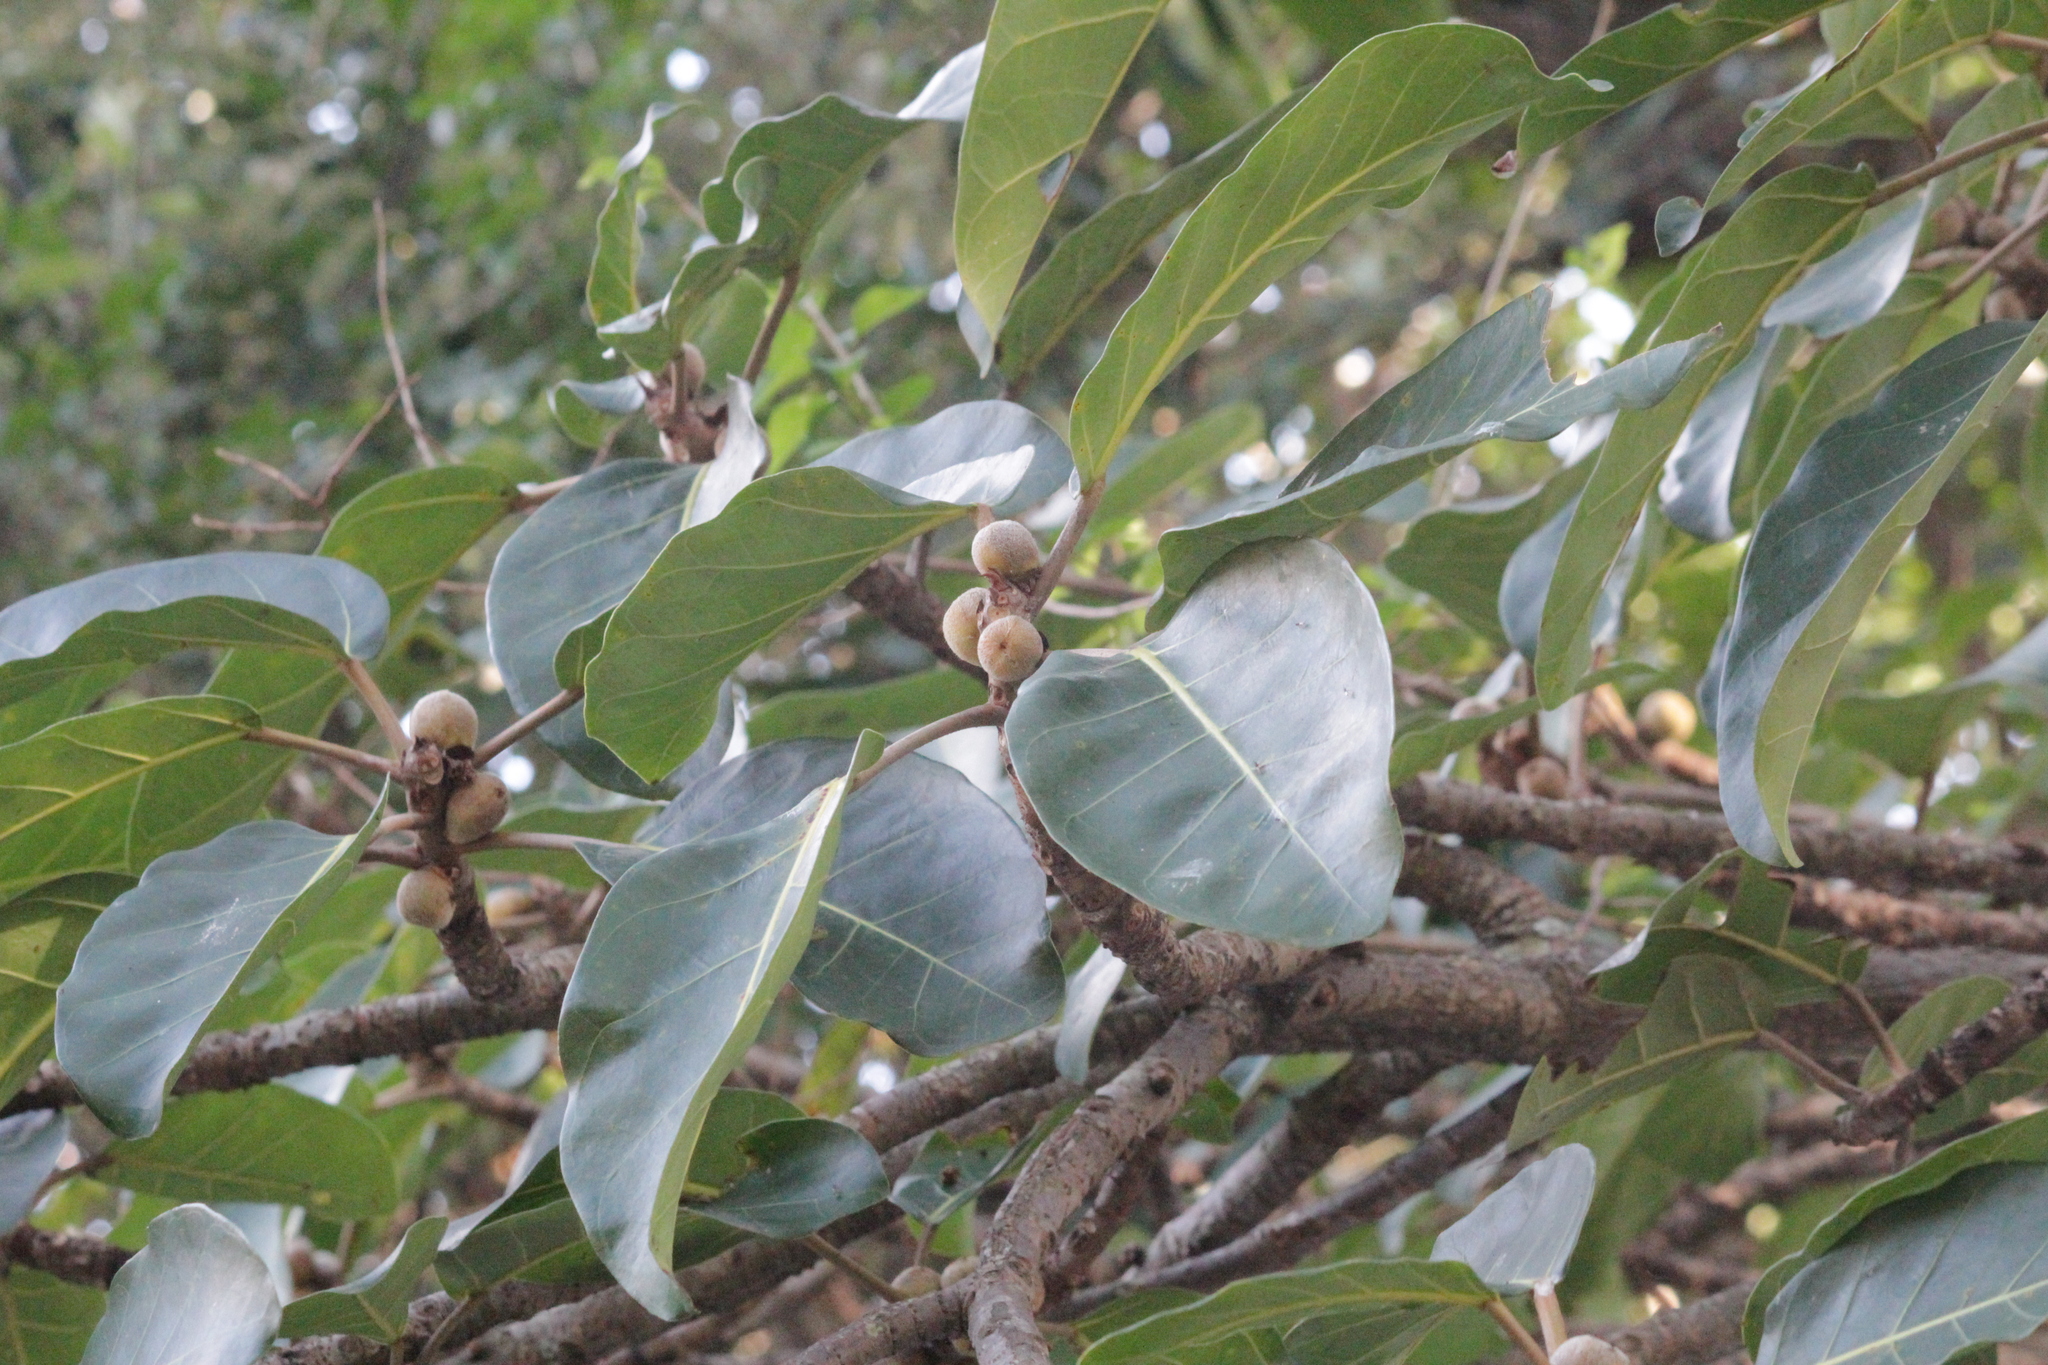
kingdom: Plantae
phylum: Tracheophyta
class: Magnoliopsida
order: Rosales
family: Moraceae
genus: Ficus
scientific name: Ficus lutea
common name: Giant-leaved fig
